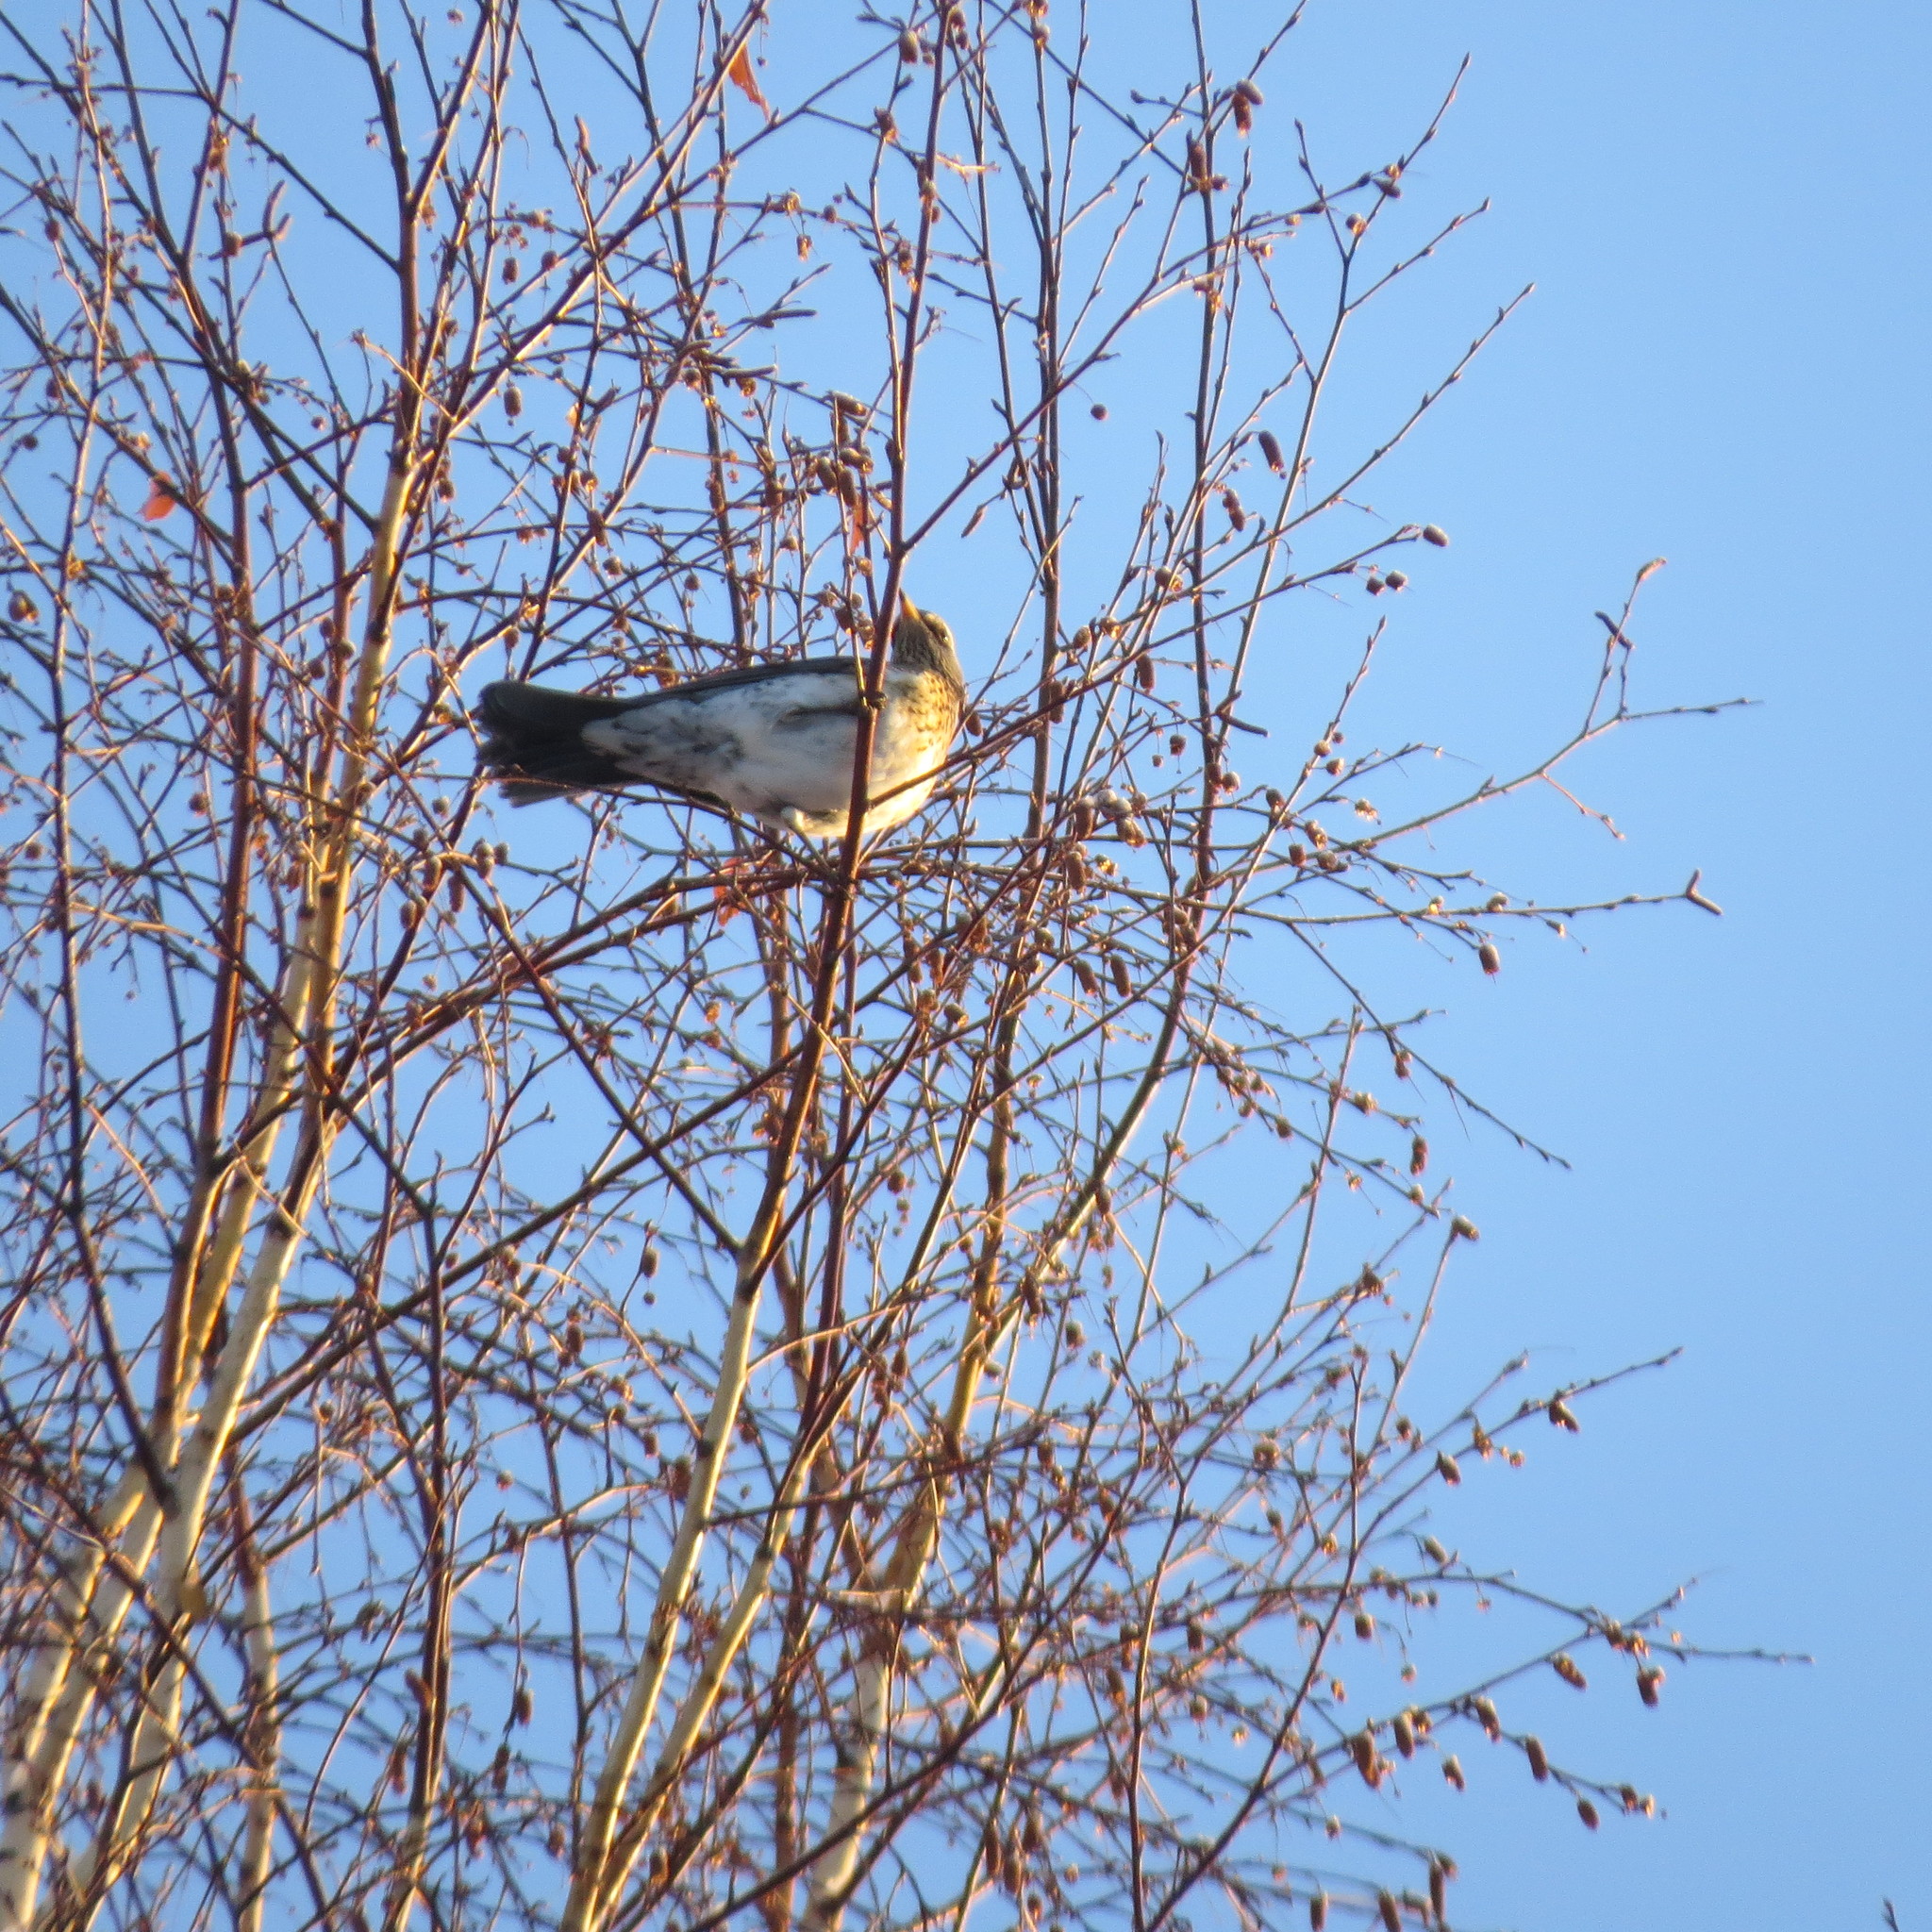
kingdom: Animalia
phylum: Chordata
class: Aves
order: Passeriformes
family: Turdidae
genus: Turdus
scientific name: Turdus pilaris
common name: Fieldfare
